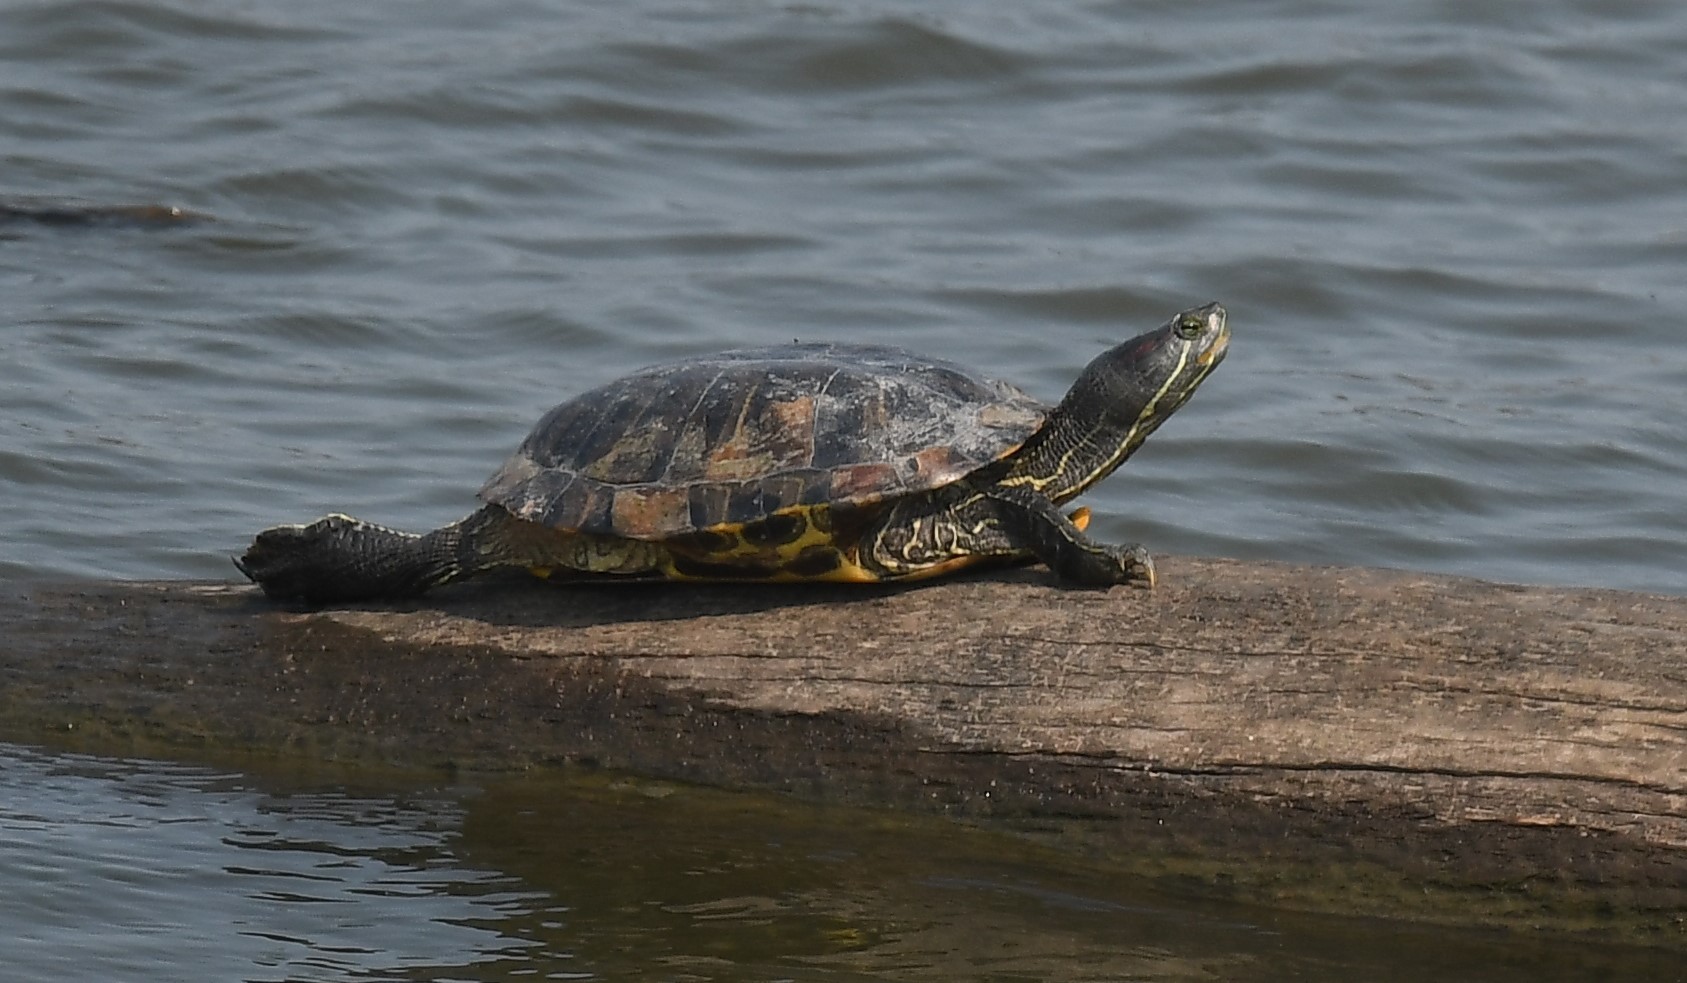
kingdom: Animalia
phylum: Chordata
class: Testudines
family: Emydidae
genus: Trachemys
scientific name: Trachemys scripta
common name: Slider
